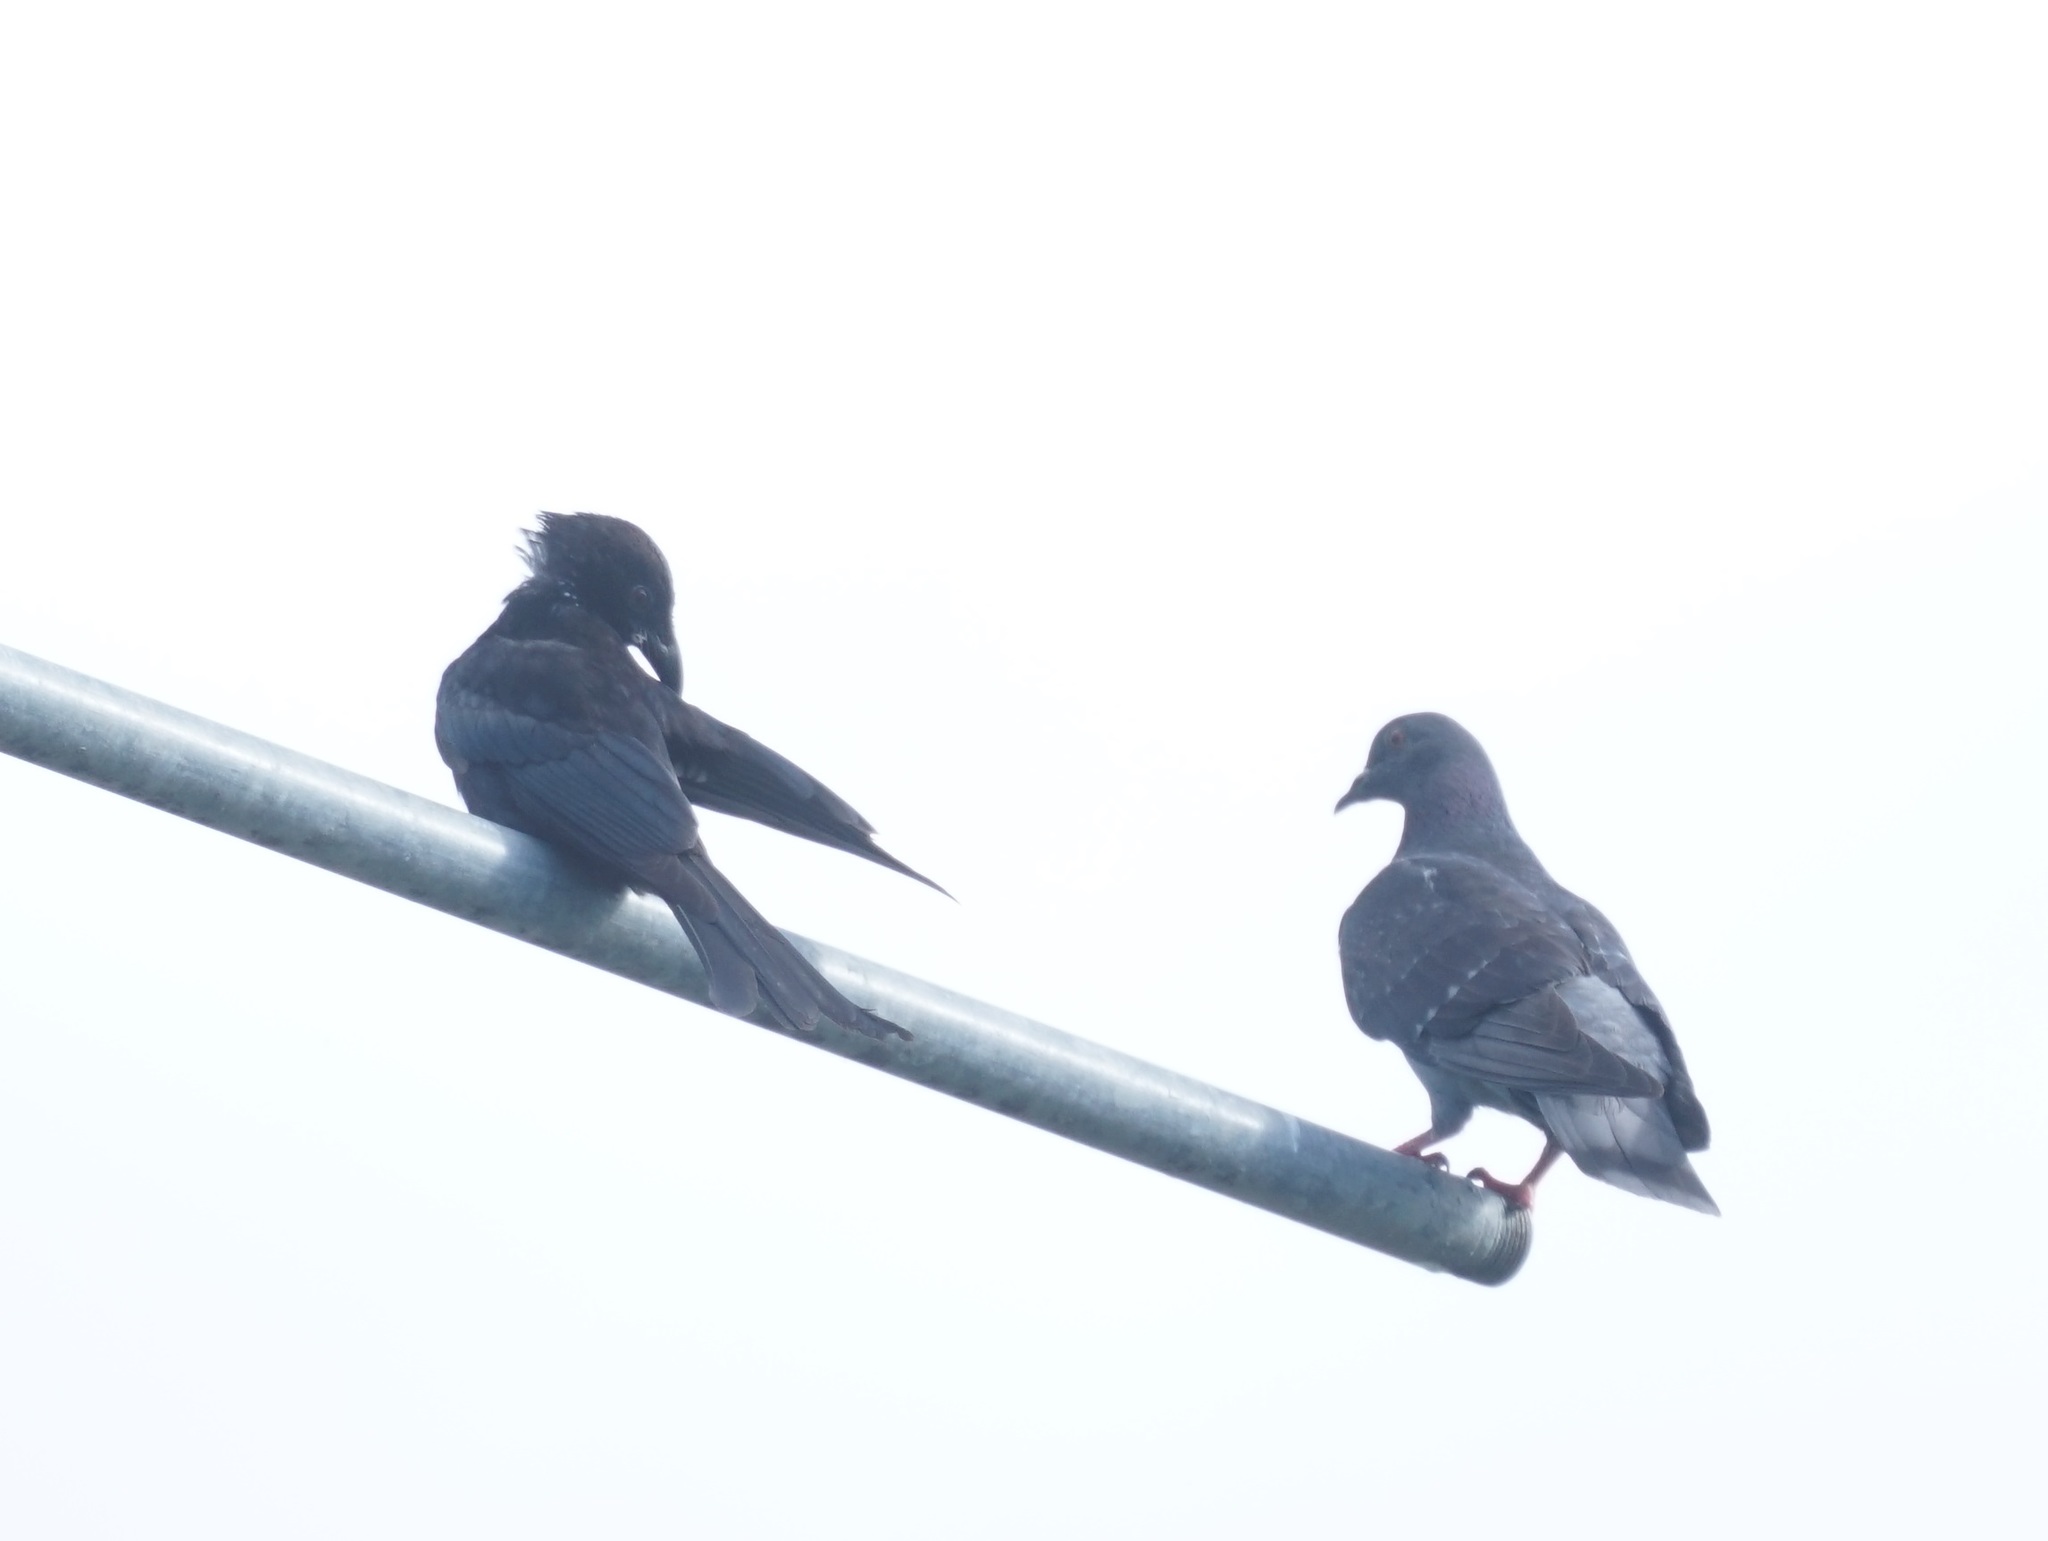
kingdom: Animalia
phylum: Chordata
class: Aves
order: Passeriformes
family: Dicruridae
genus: Dicrurus
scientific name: Dicrurus bracteatus
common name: Spangled drongo
